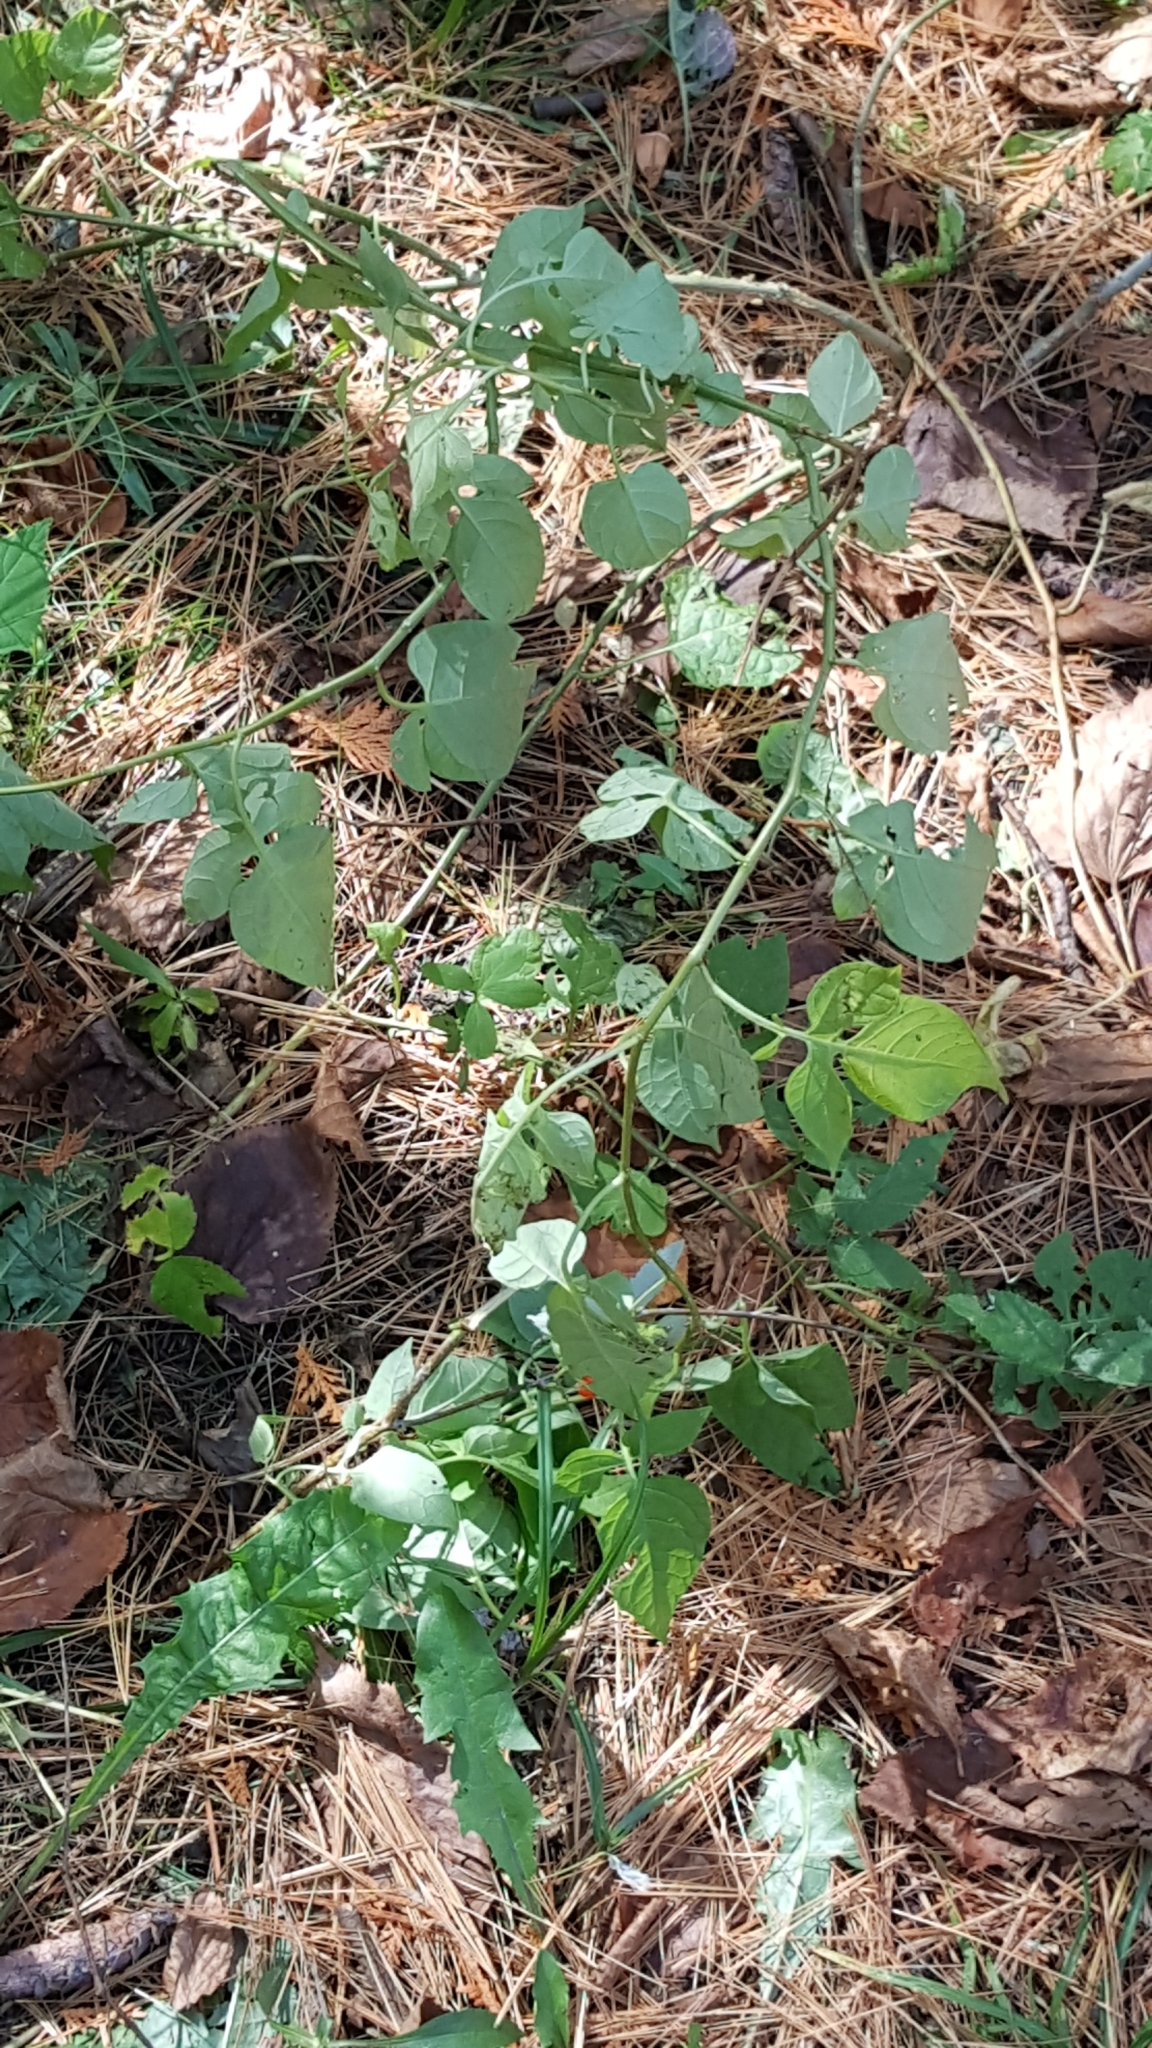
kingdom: Plantae
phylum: Tracheophyta
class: Magnoliopsida
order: Solanales
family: Solanaceae
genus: Solanum
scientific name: Solanum dulcamara
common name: Climbing nightshade
